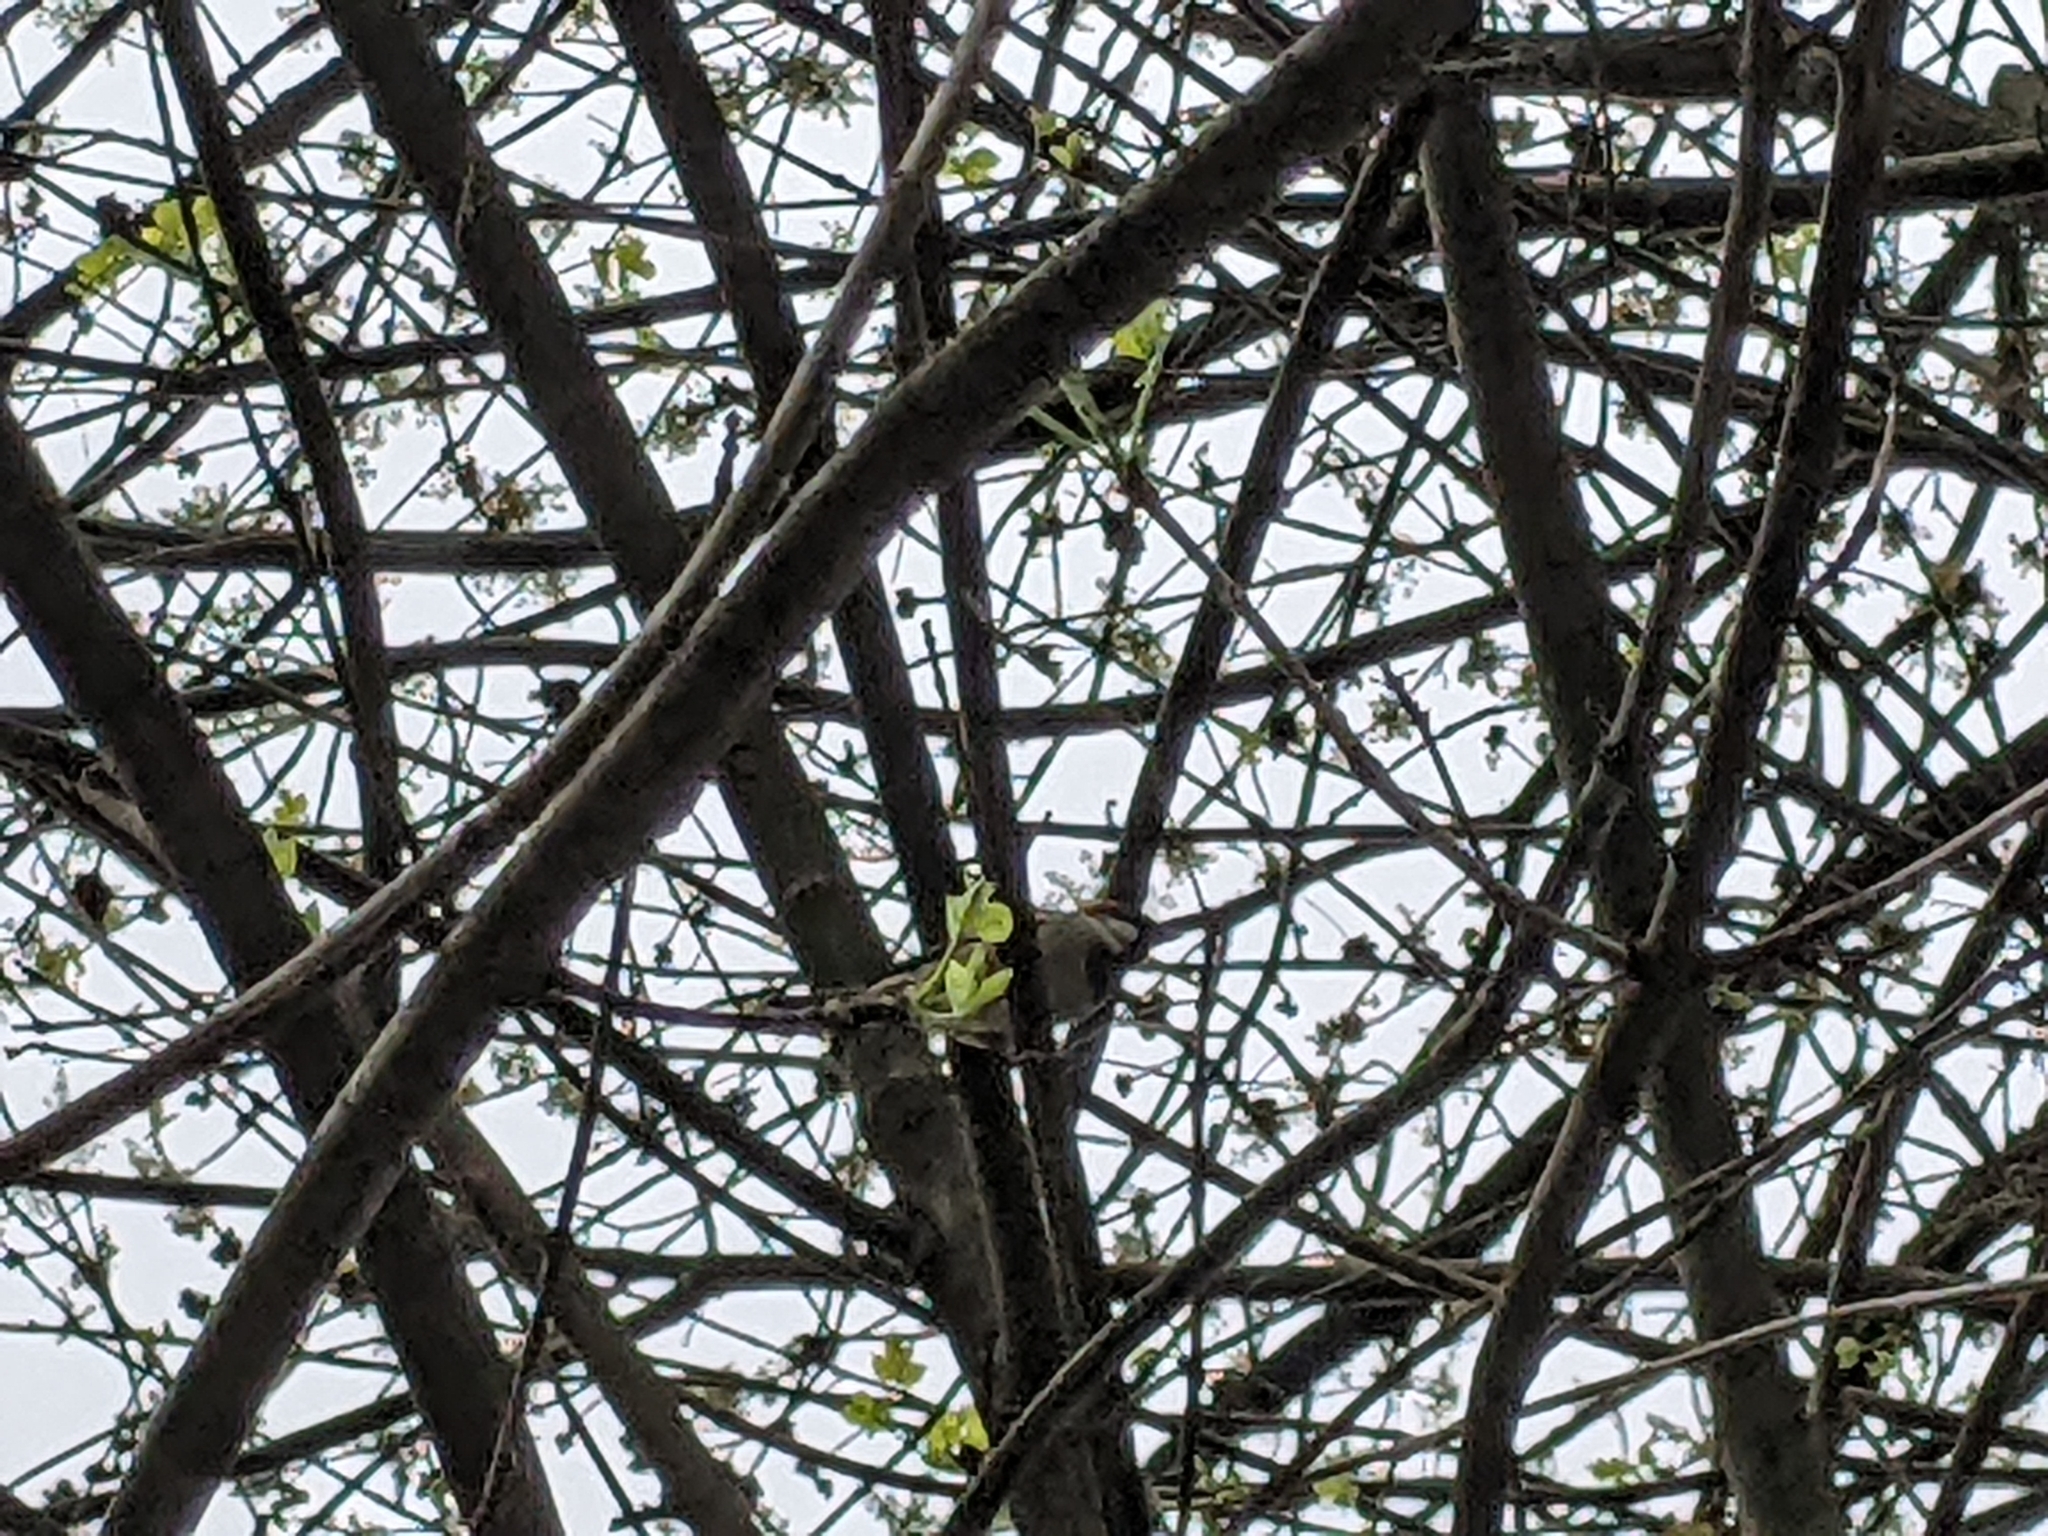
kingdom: Animalia
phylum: Chordata
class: Aves
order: Passeriformes
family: Passeridae
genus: Passer
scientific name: Passer domesticus
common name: House sparrow
